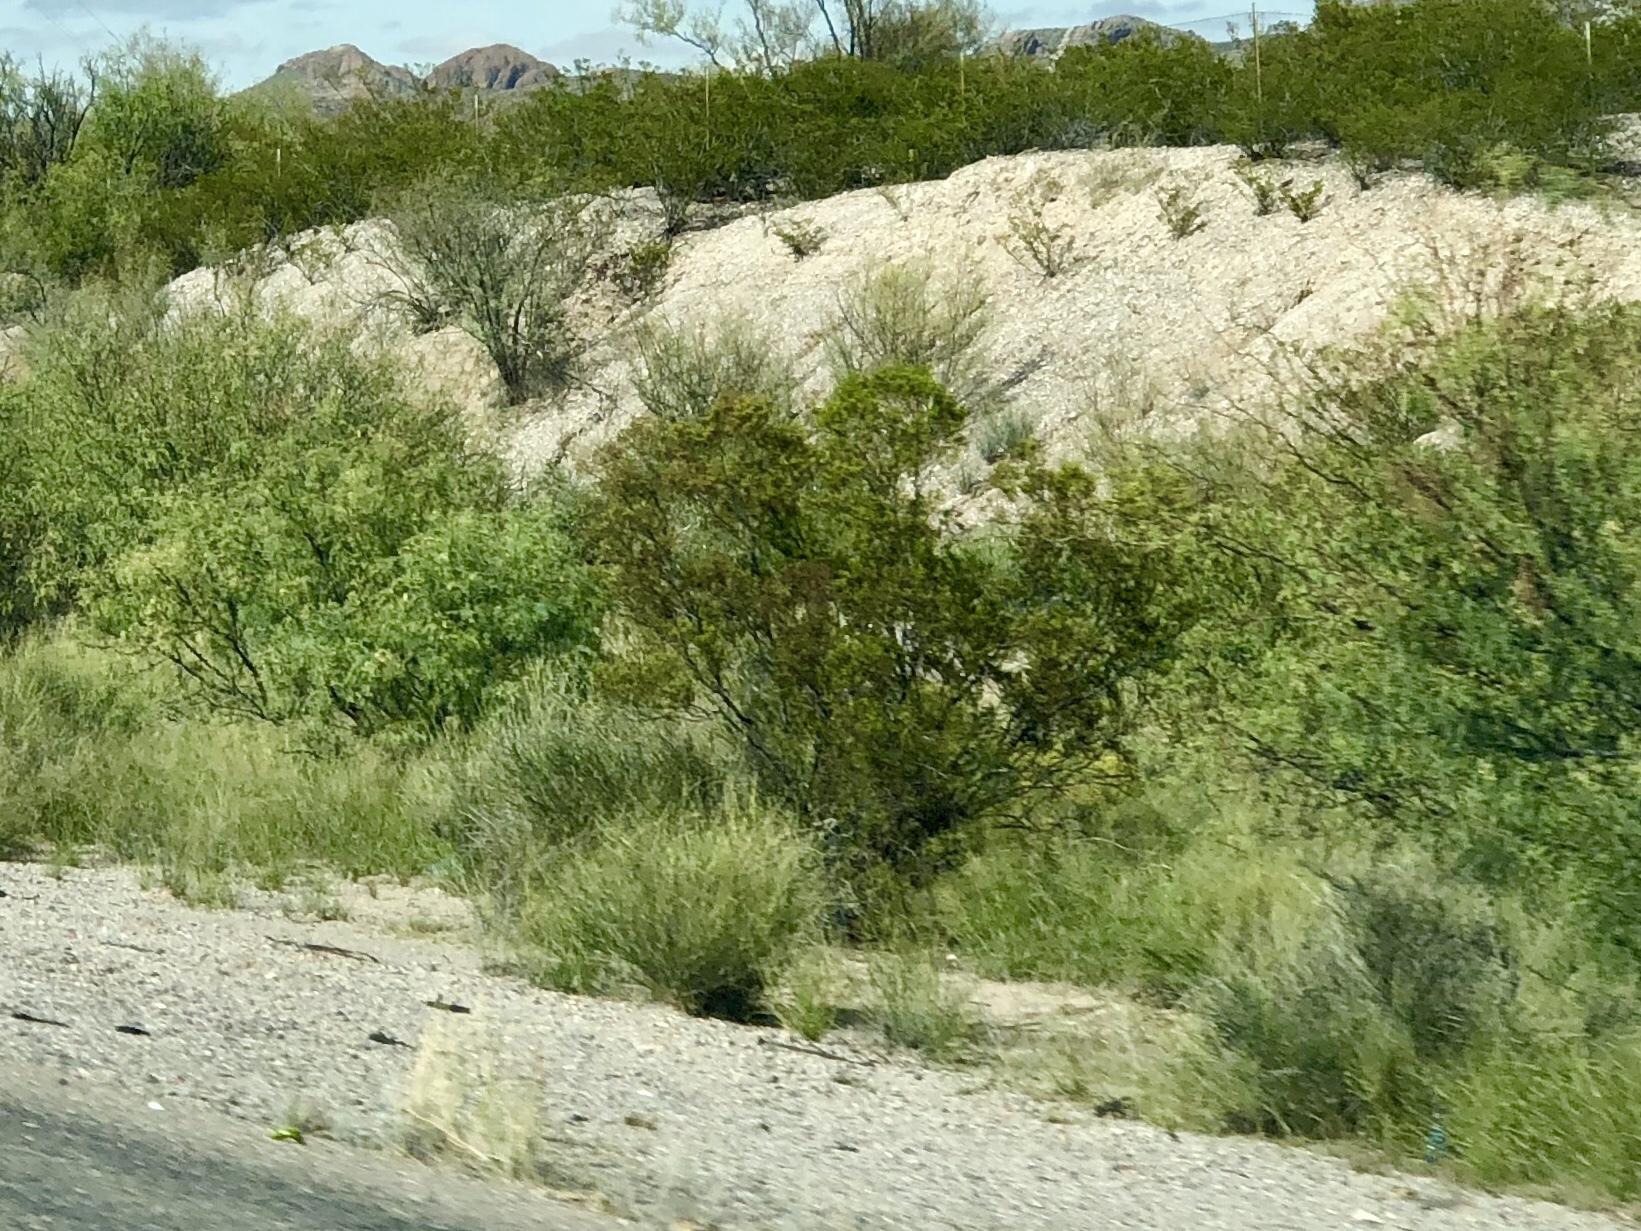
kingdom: Plantae
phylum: Tracheophyta
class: Magnoliopsida
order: Zygophyllales
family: Zygophyllaceae
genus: Larrea
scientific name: Larrea tridentata
